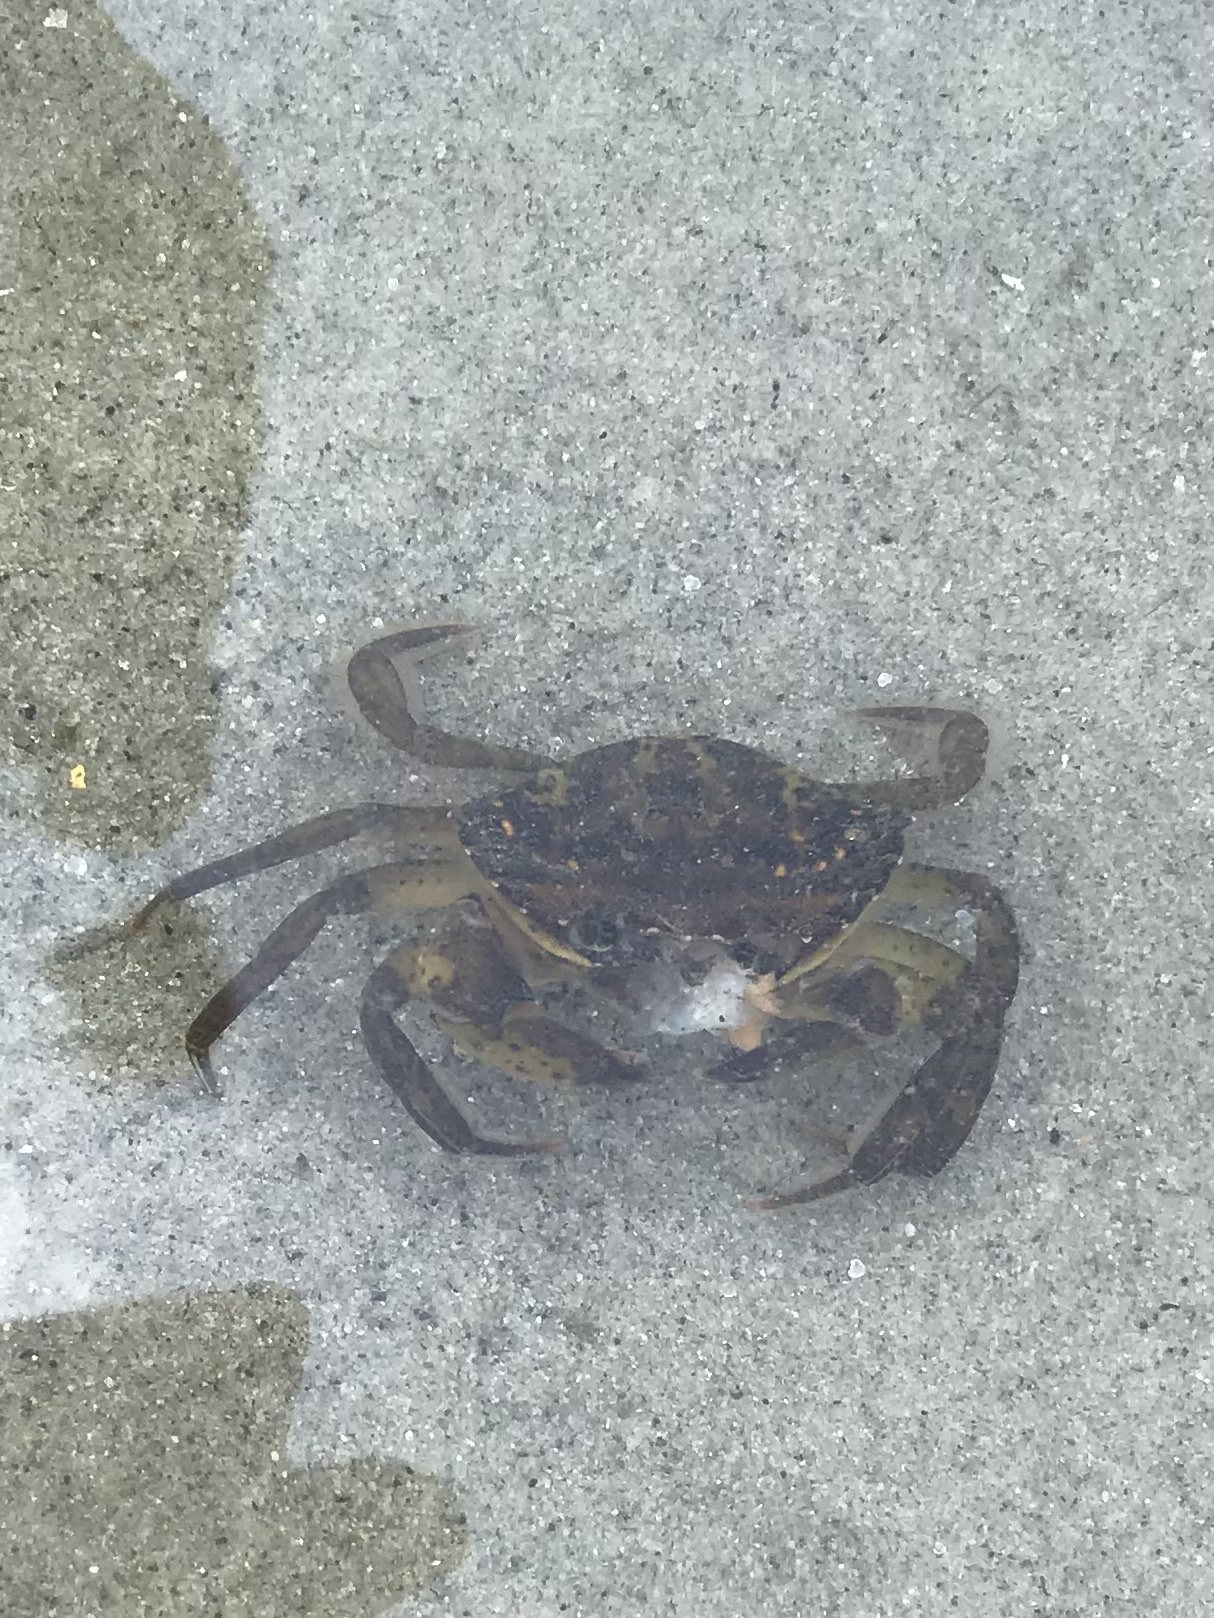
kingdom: Animalia
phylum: Arthropoda
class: Malacostraca
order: Decapoda
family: Carcinidae
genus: Carcinus
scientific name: Carcinus maenas
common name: European green crab
